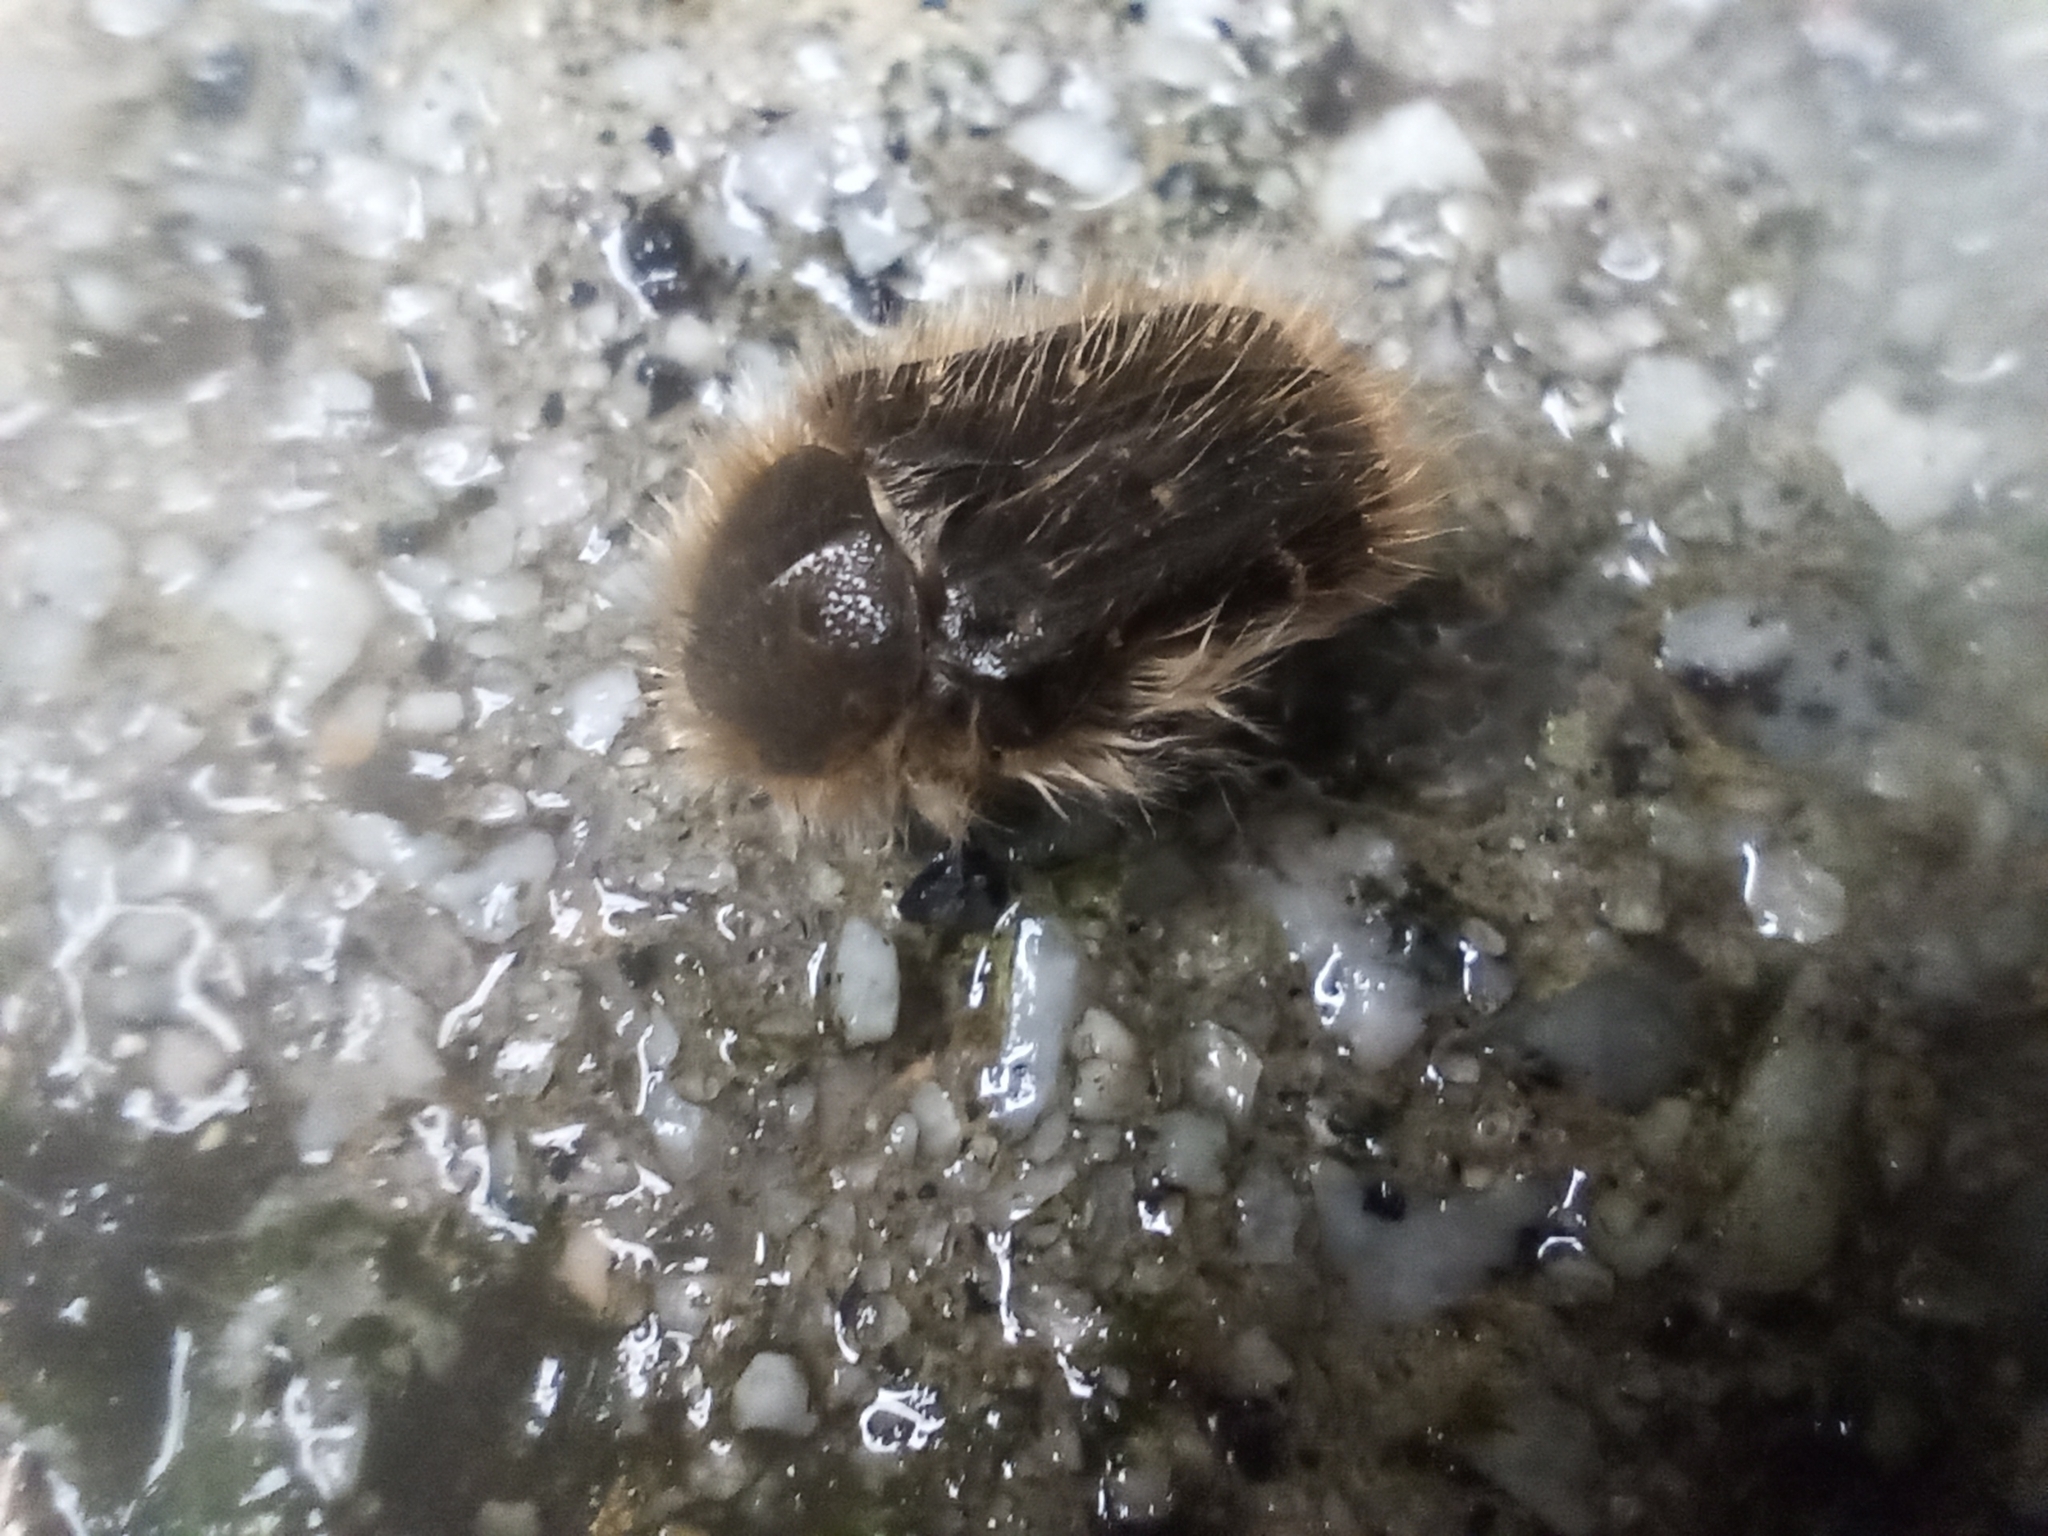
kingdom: Animalia
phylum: Arthropoda
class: Insecta
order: Coleoptera
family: Scarabaeidae
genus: Tropinota
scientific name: Tropinota squalida
